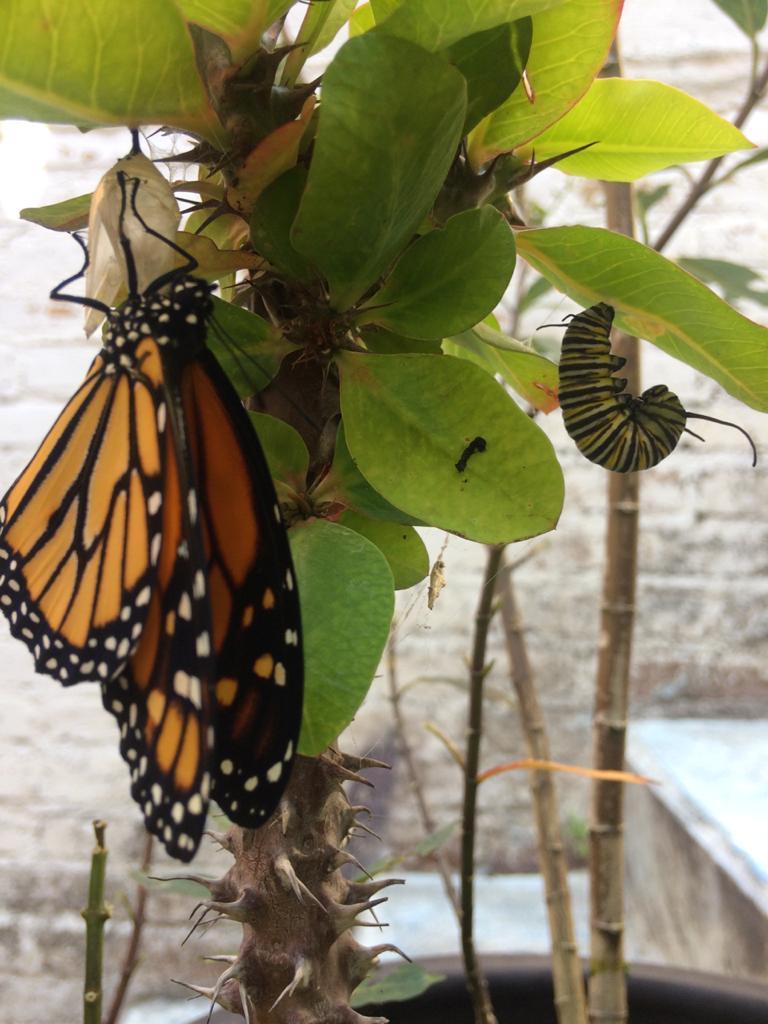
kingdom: Animalia
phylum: Arthropoda
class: Insecta
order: Lepidoptera
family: Nymphalidae
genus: Danaus
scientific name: Danaus plexippus
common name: Monarch
